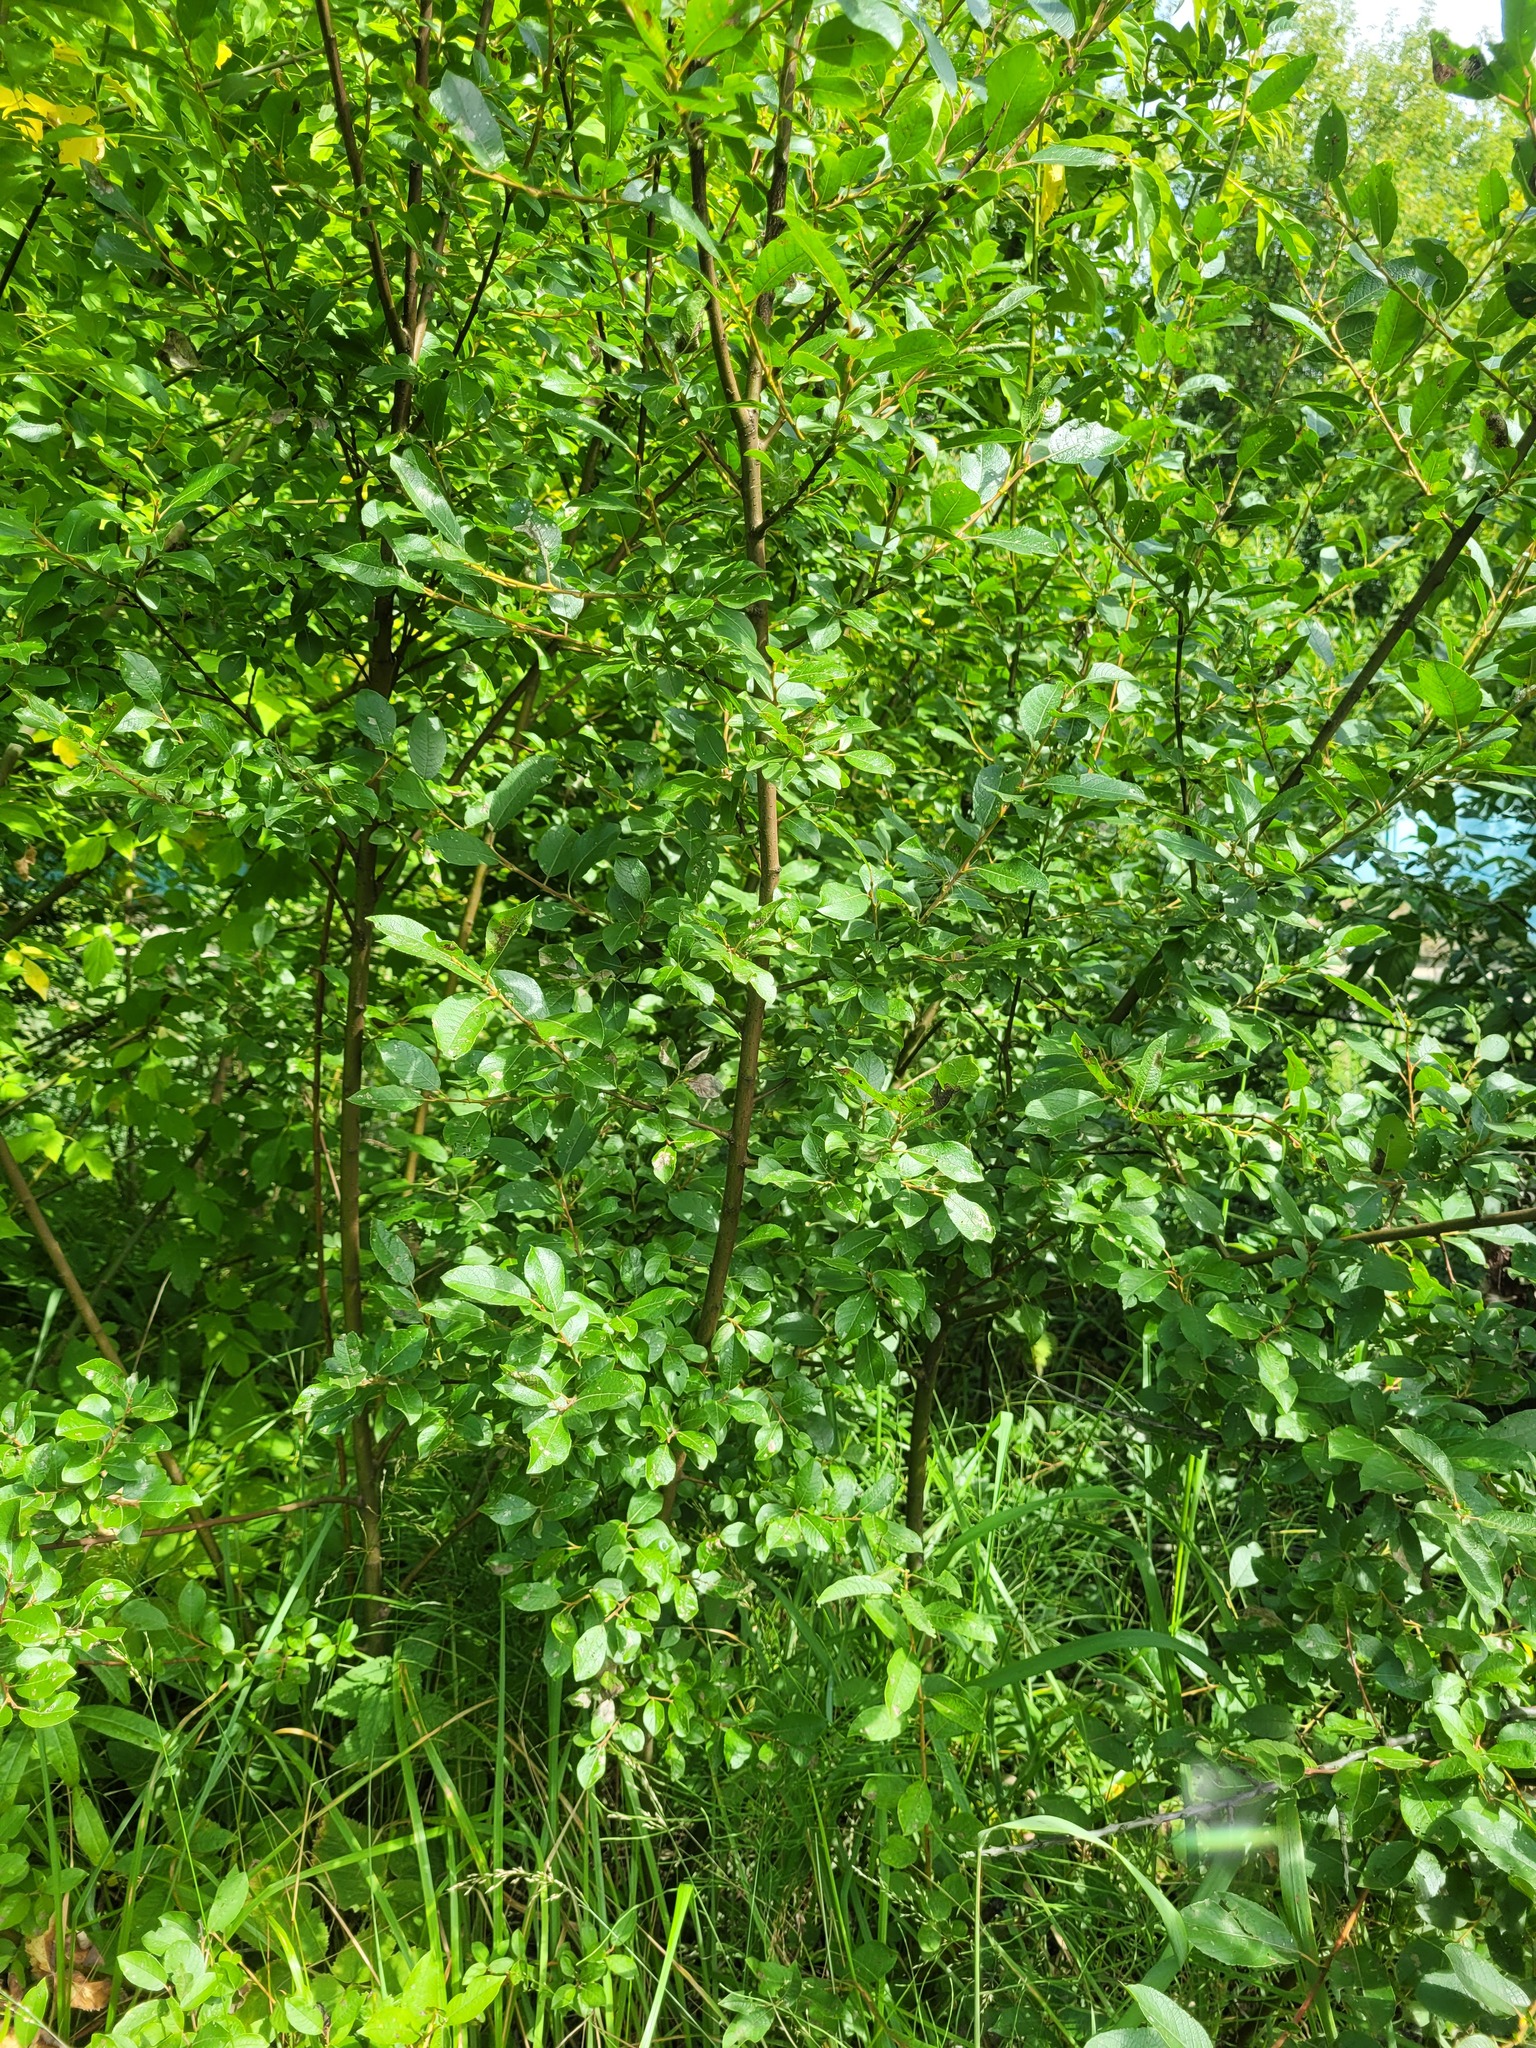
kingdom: Plantae
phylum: Tracheophyta
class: Magnoliopsida
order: Malpighiales
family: Salicaceae
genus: Salix
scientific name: Salix myrsinifolia
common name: Dark-leaved willow
